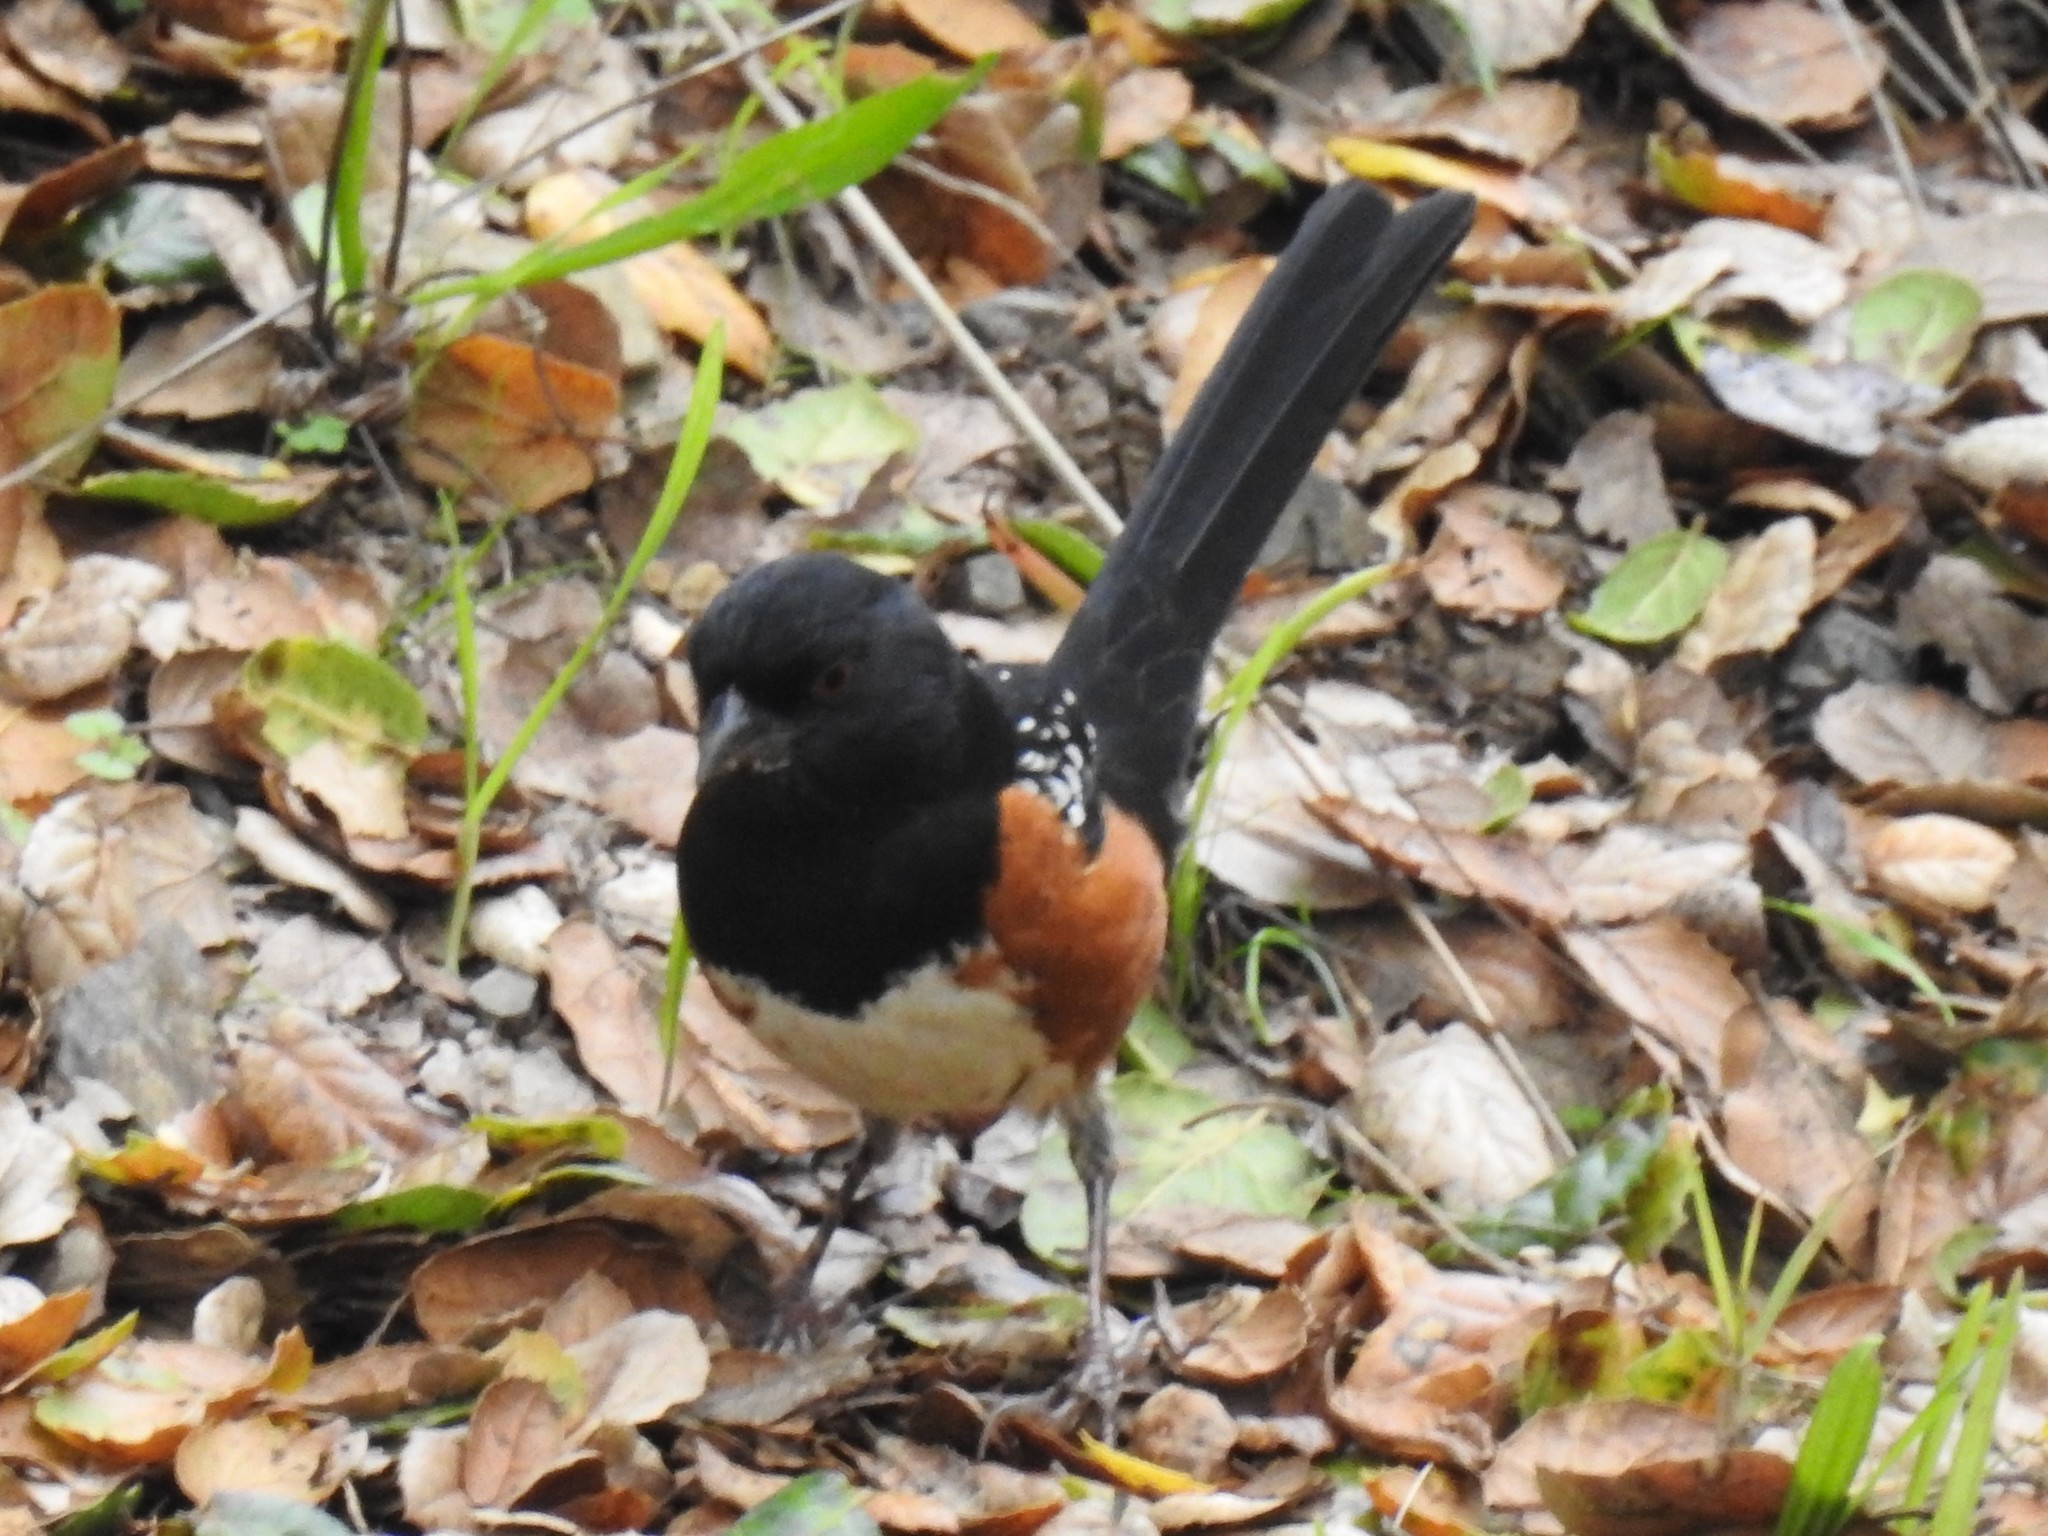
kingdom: Animalia
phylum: Chordata
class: Aves
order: Passeriformes
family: Passerellidae
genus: Pipilo
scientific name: Pipilo maculatus
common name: Spotted towhee
